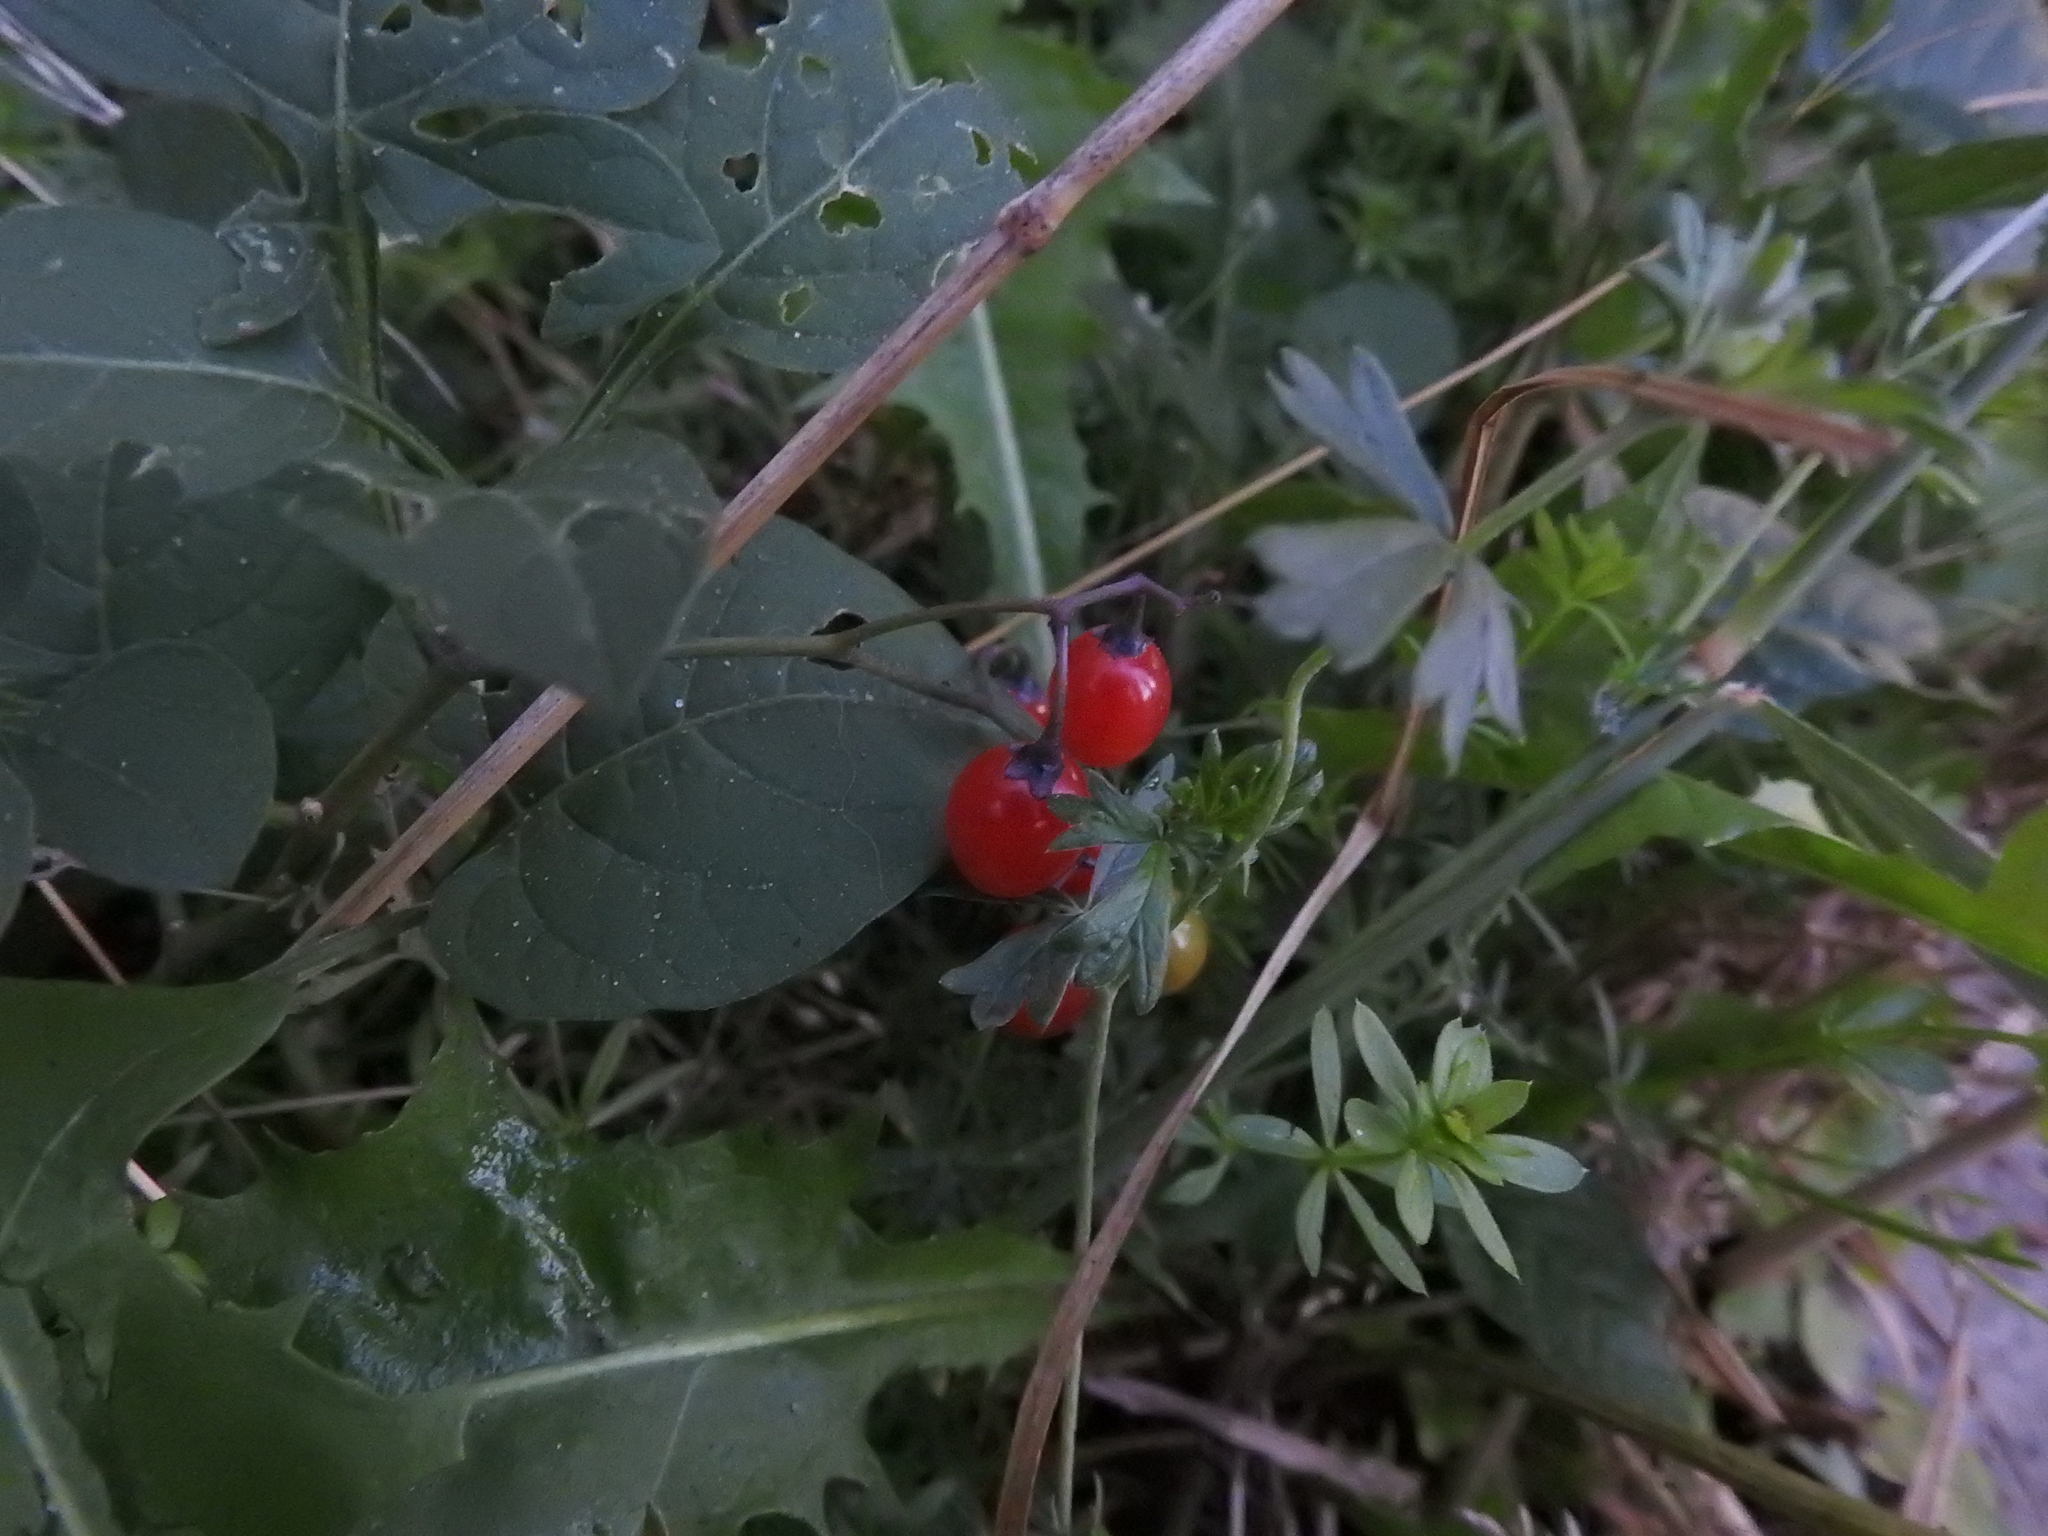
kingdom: Plantae
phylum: Tracheophyta
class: Magnoliopsida
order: Solanales
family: Solanaceae
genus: Solanum
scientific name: Solanum dulcamara
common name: Climbing nightshade
